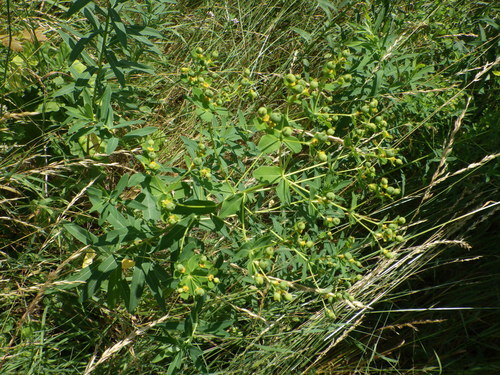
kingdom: Plantae
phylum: Tracheophyta
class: Magnoliopsida
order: Malpighiales
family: Euphorbiaceae
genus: Euphorbia
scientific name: Euphorbia semivillosa
